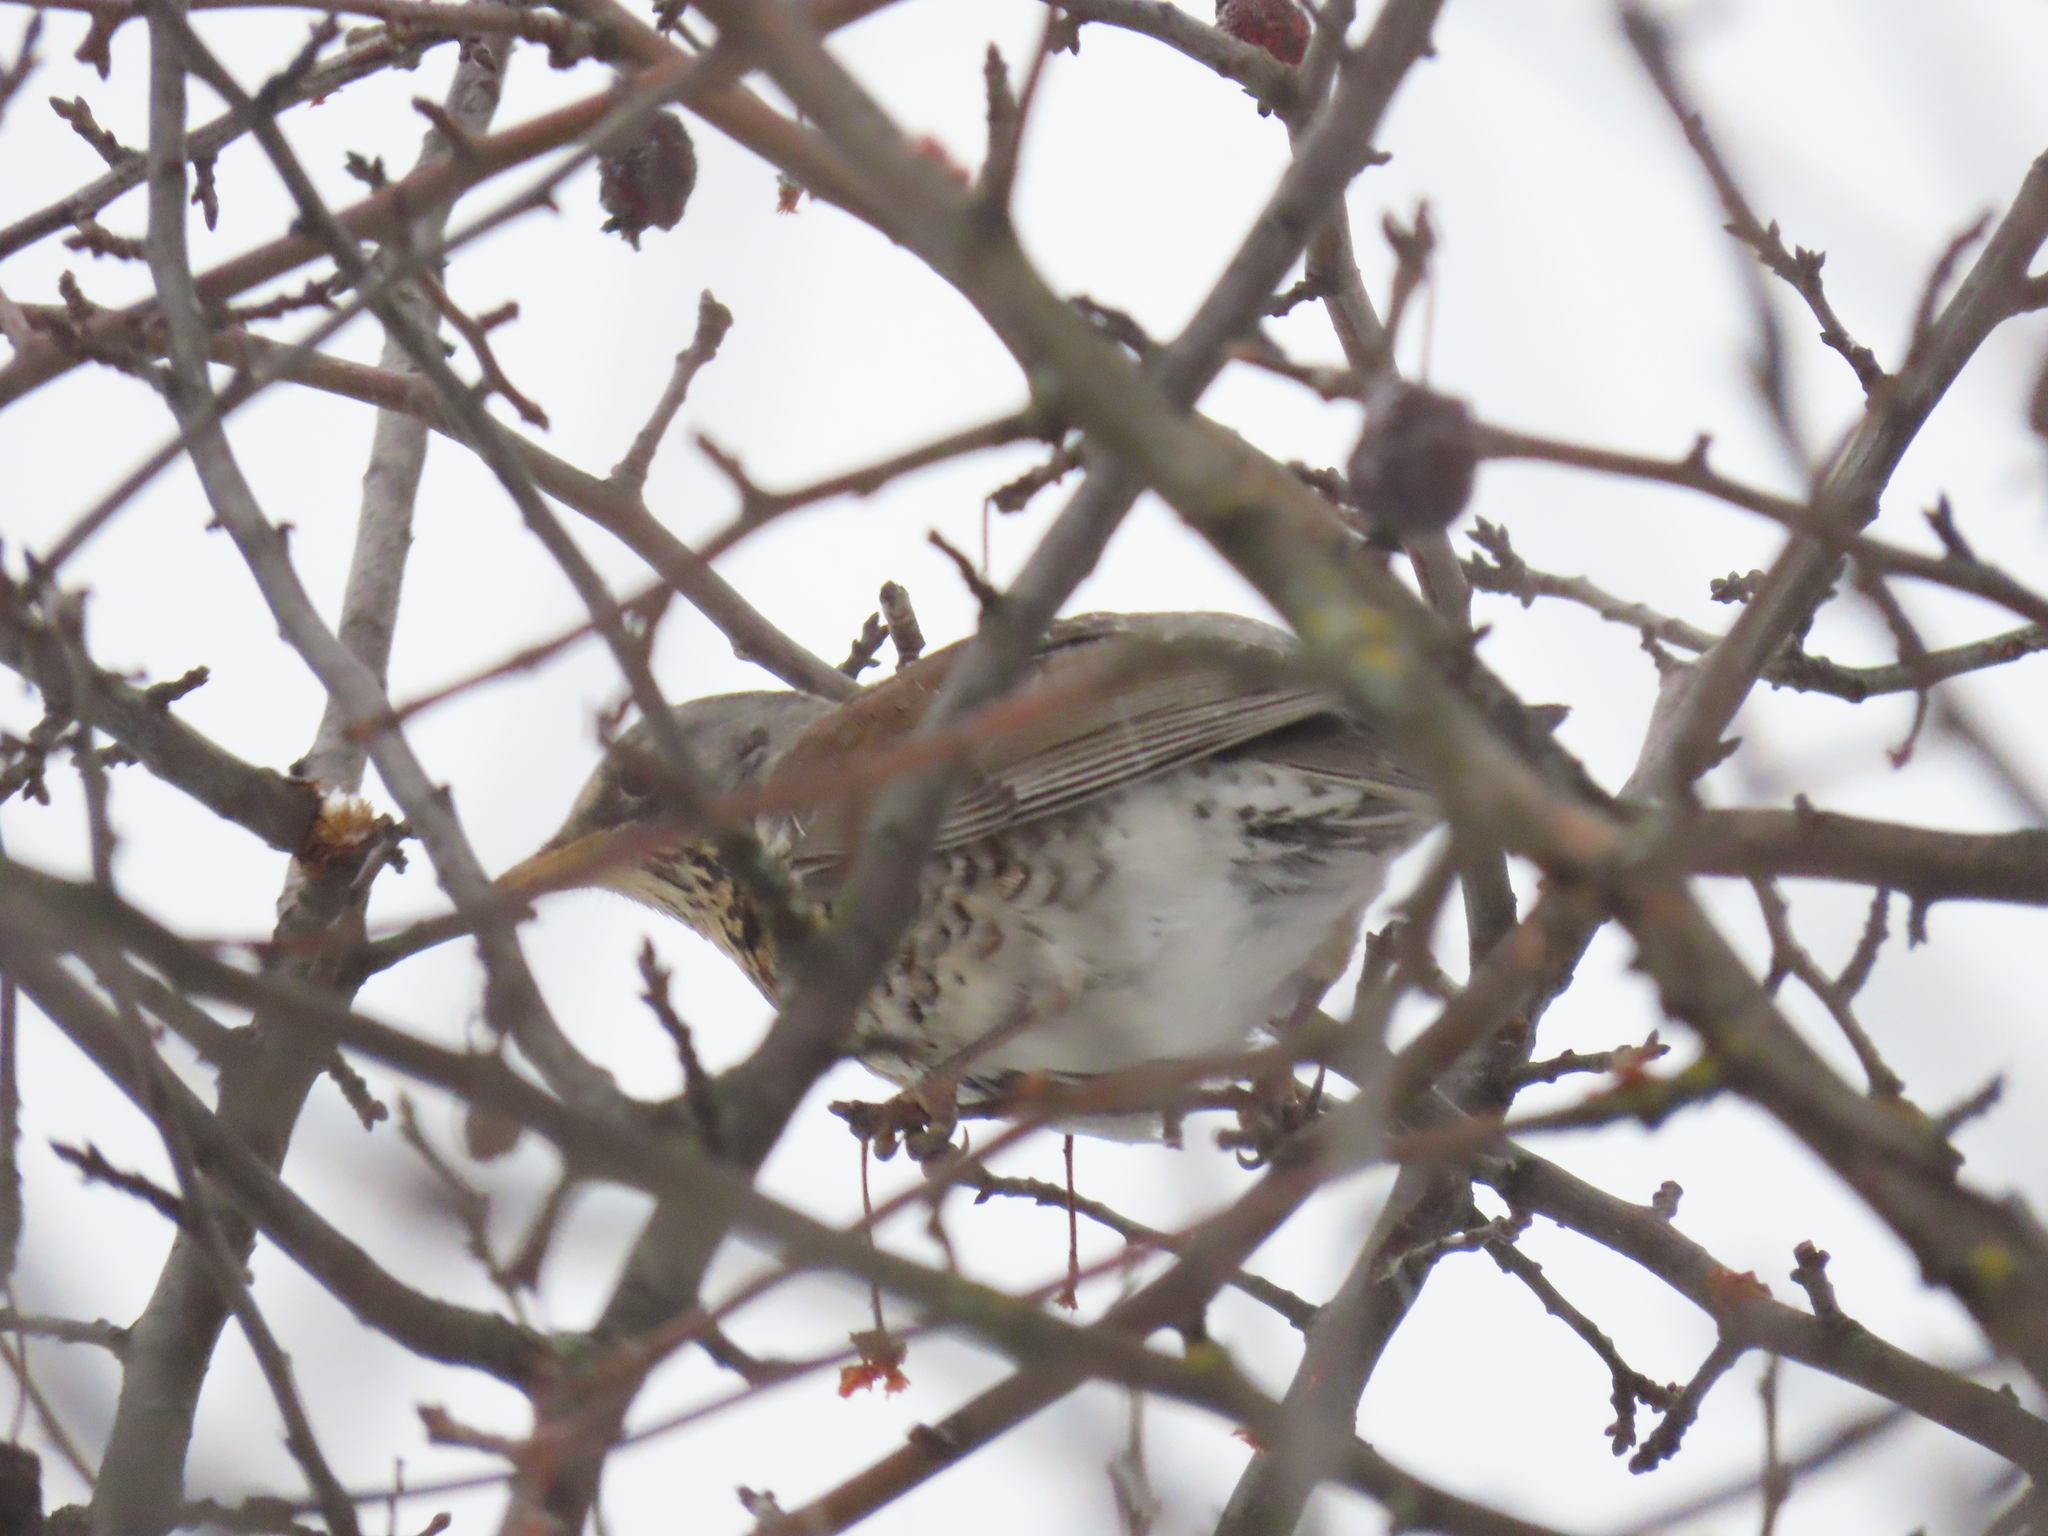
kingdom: Animalia
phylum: Chordata
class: Aves
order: Passeriformes
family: Turdidae
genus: Turdus
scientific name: Turdus pilaris
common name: Fieldfare
